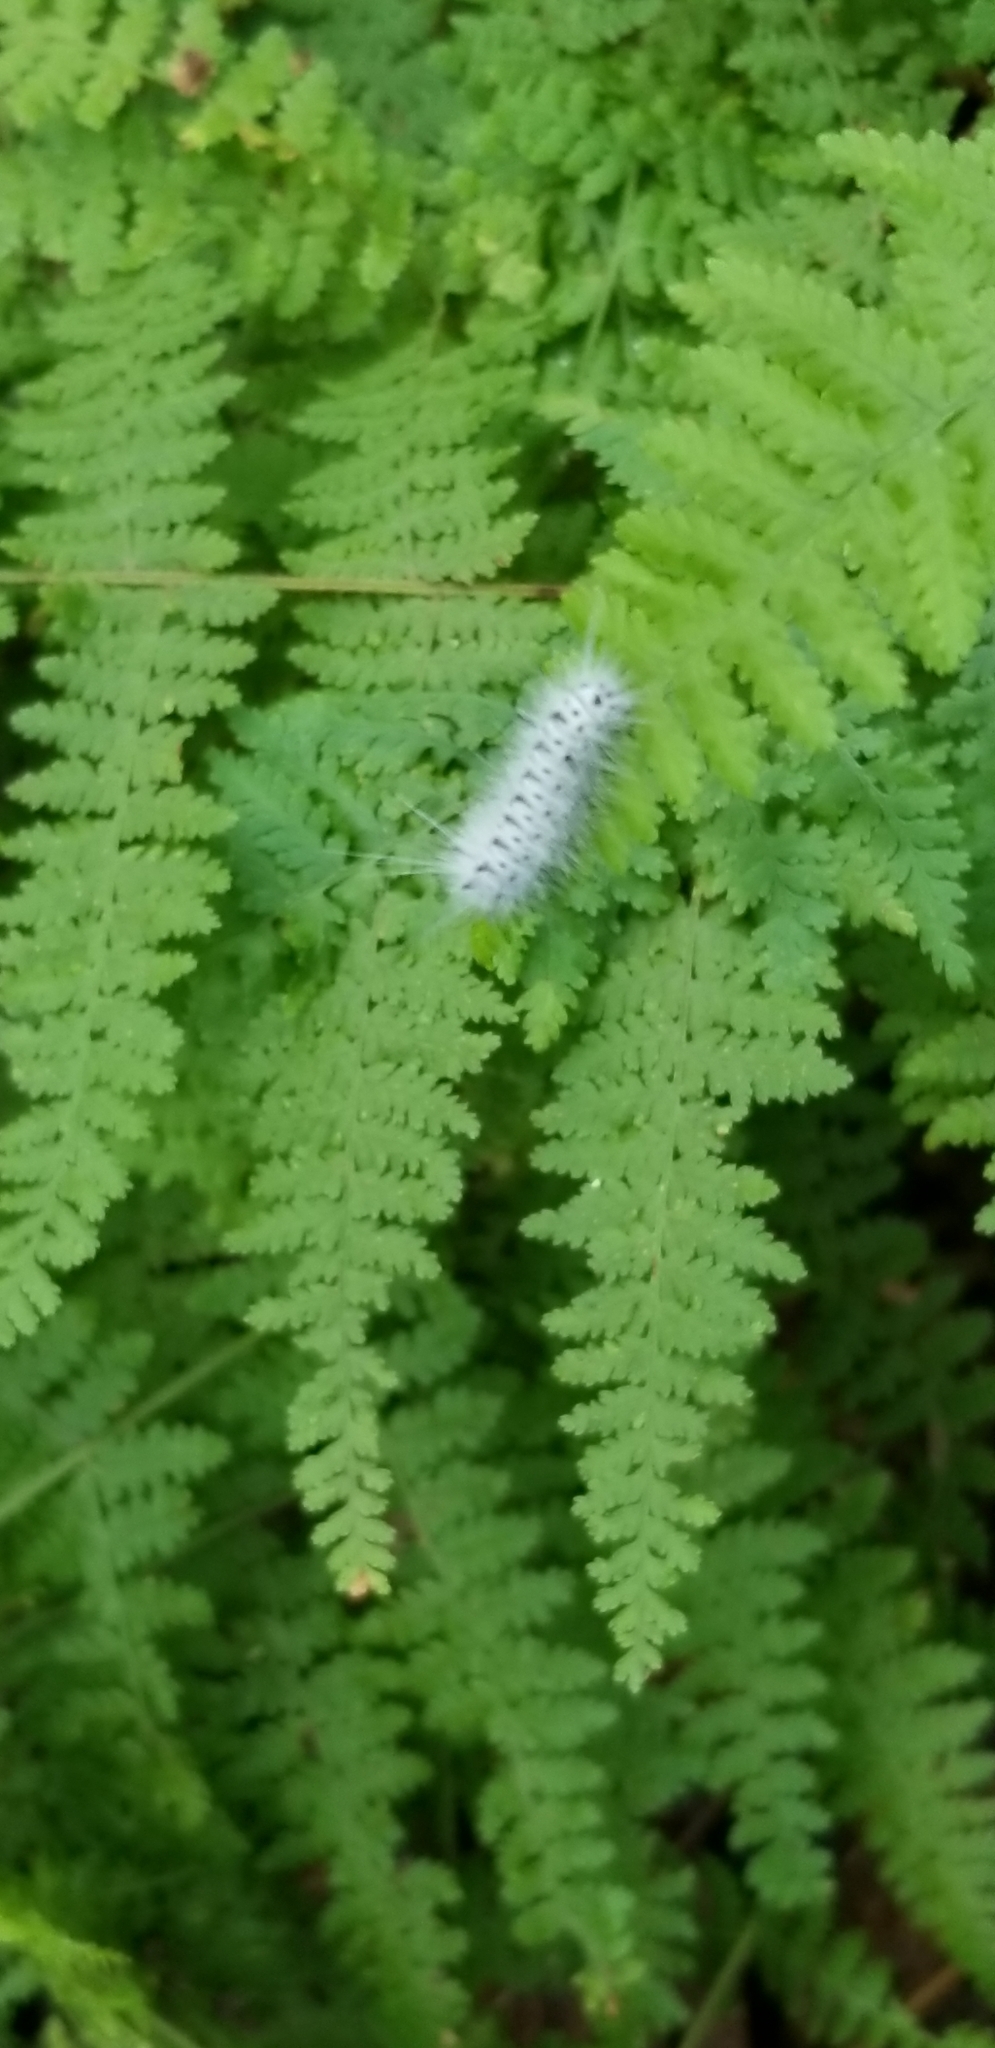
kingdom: Animalia
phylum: Arthropoda
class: Insecta
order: Lepidoptera
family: Erebidae
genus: Lophocampa
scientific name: Lophocampa caryae
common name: Hickory tussock moth
